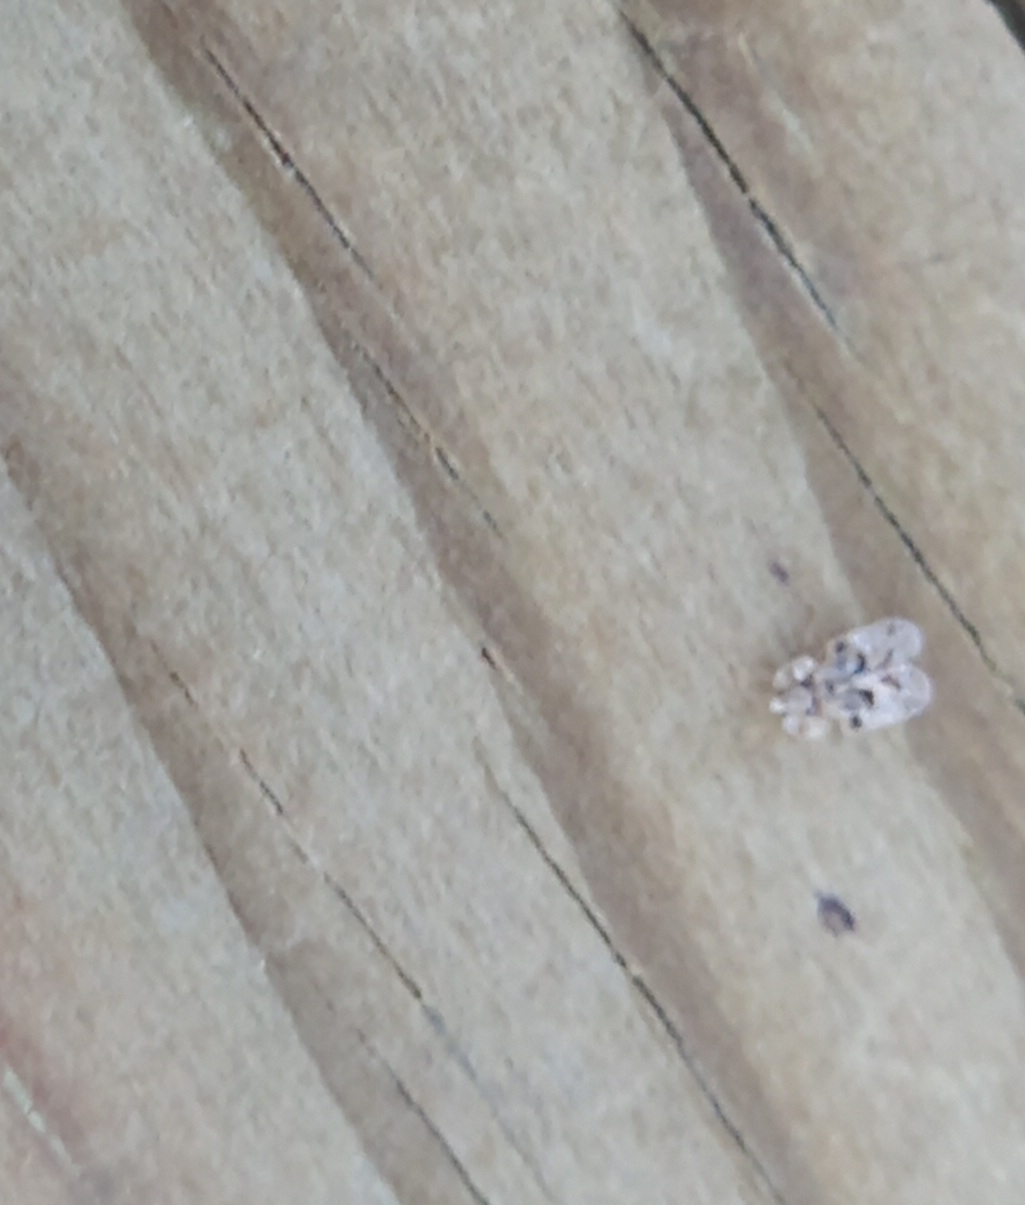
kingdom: Animalia
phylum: Arthropoda
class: Insecta
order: Hemiptera
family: Tingidae
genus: Corythucha
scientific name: Corythucha arcuata
